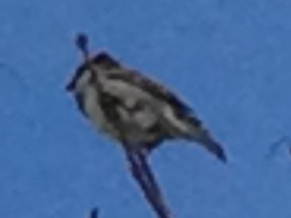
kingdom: Animalia
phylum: Chordata
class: Aves
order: Passeriformes
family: Passeridae
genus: Passer
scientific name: Passer domesticus
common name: House sparrow
